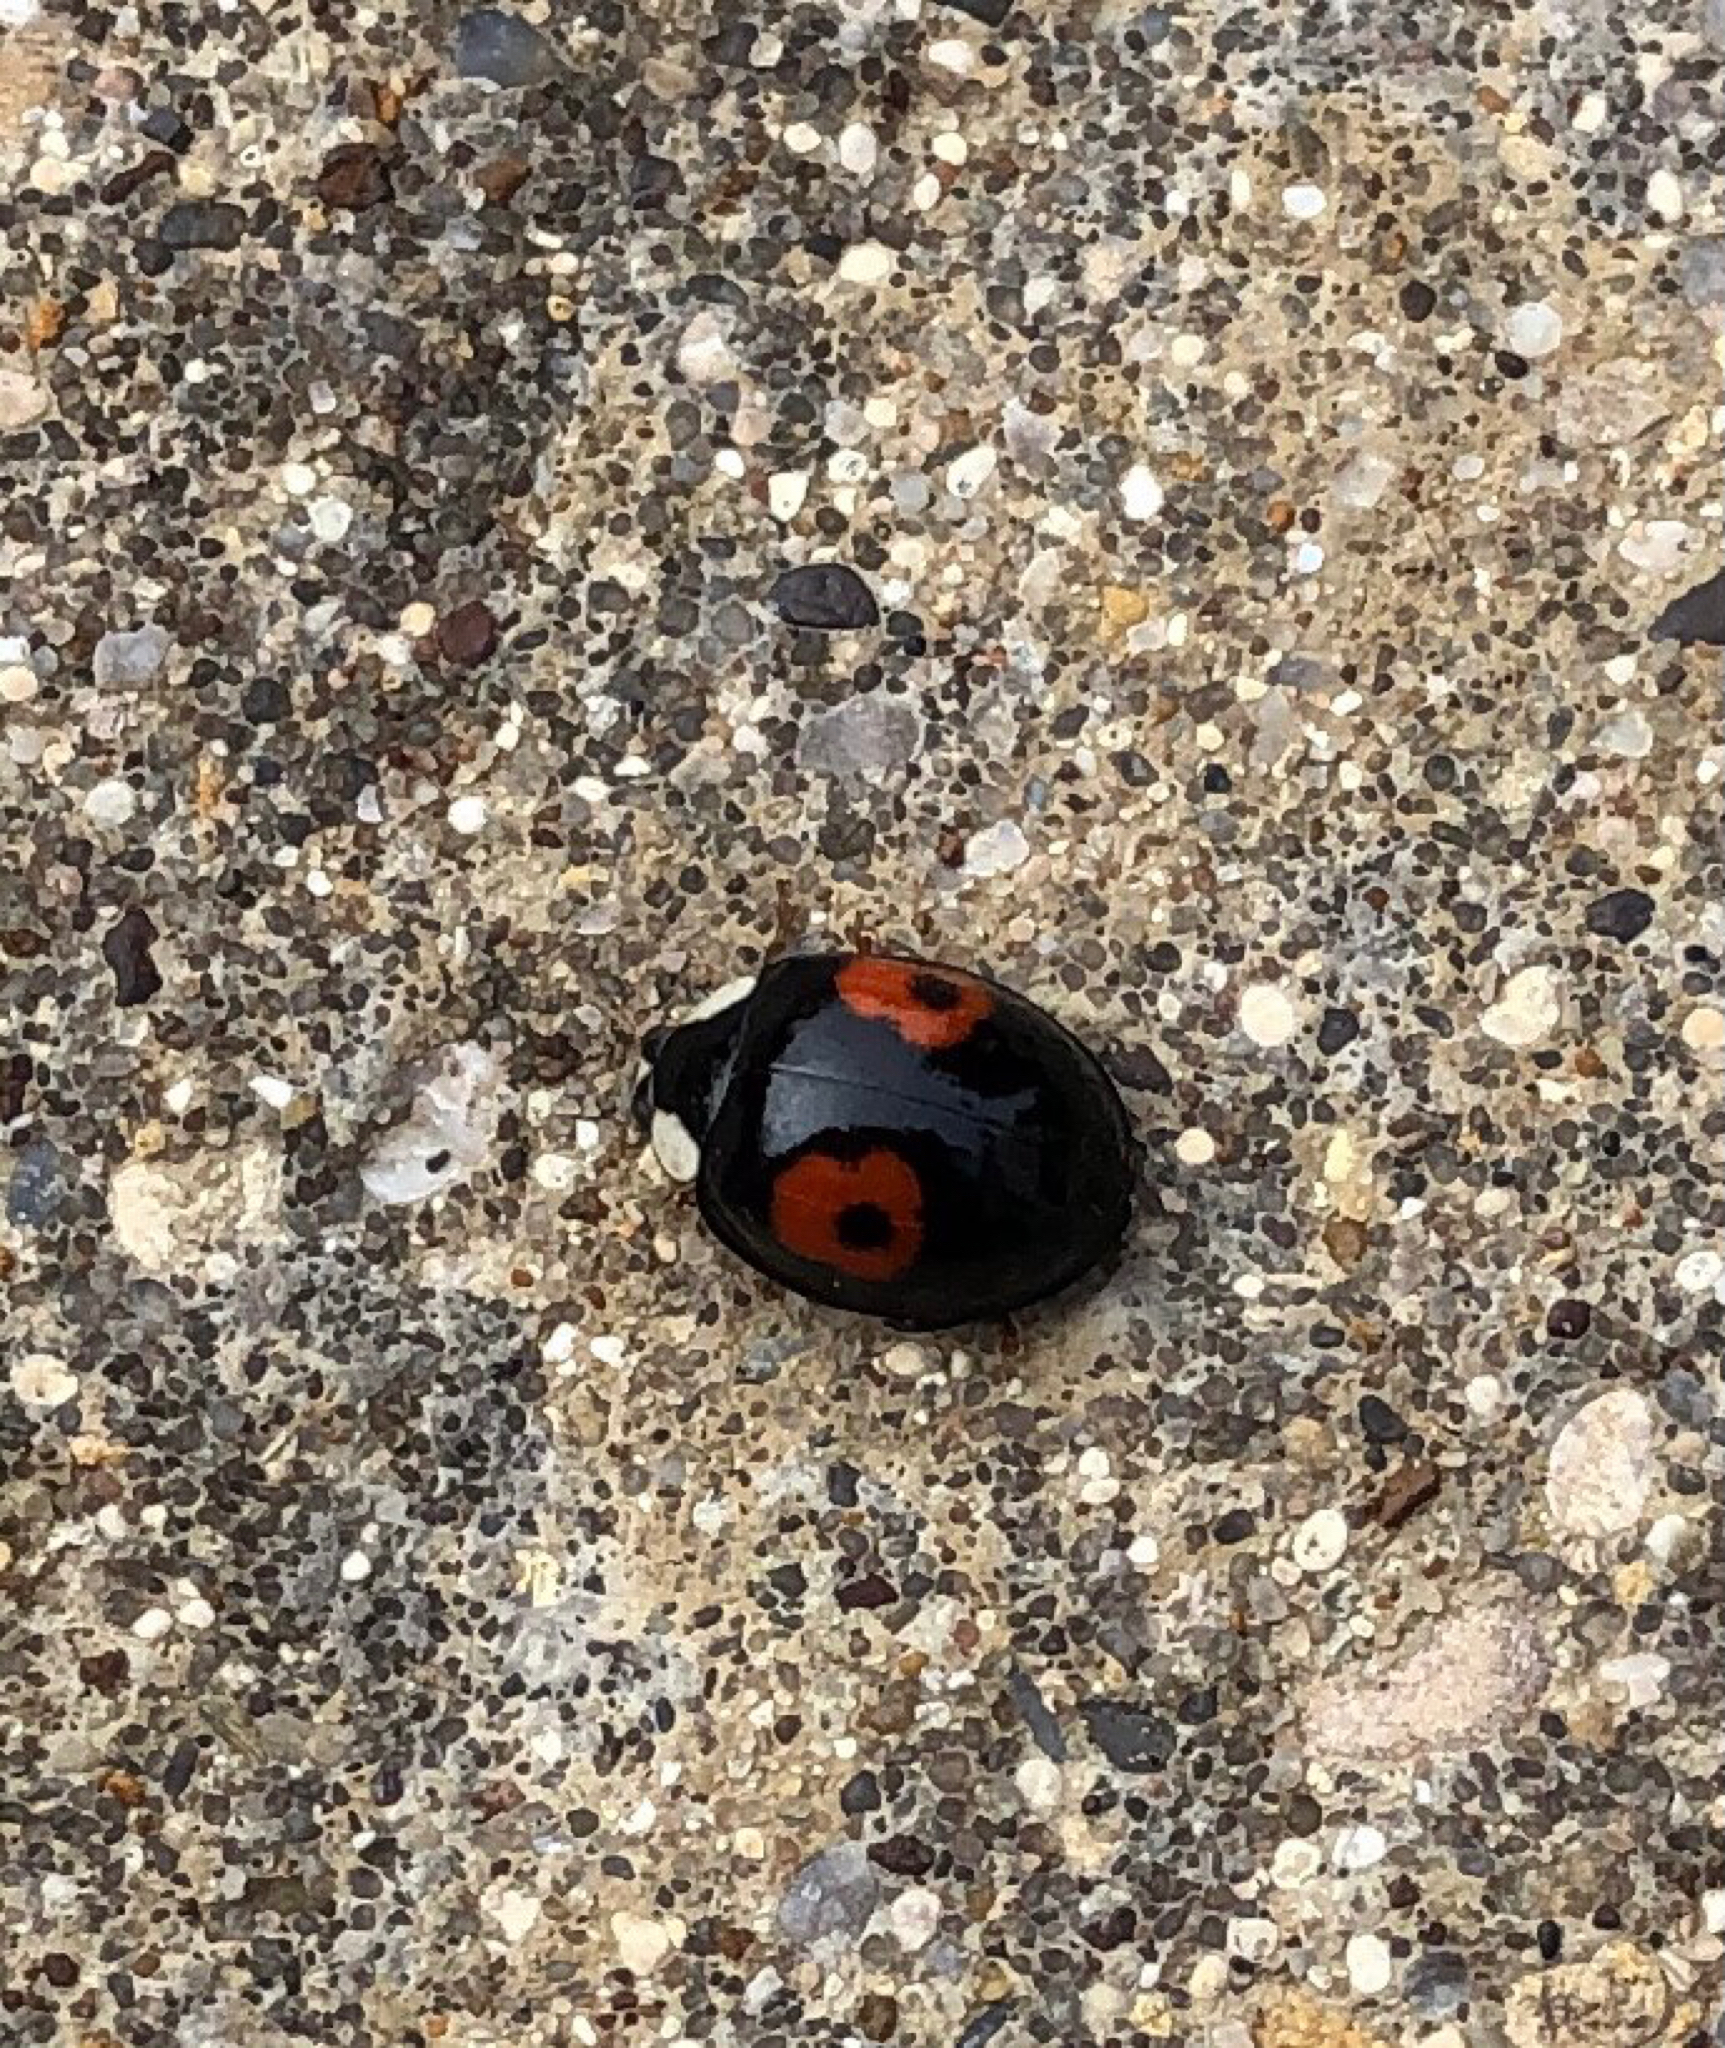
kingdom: Animalia
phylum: Arthropoda
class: Insecta
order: Coleoptera
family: Coccinellidae
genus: Harmonia
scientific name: Harmonia axyridis
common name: Harlequin ladybird
